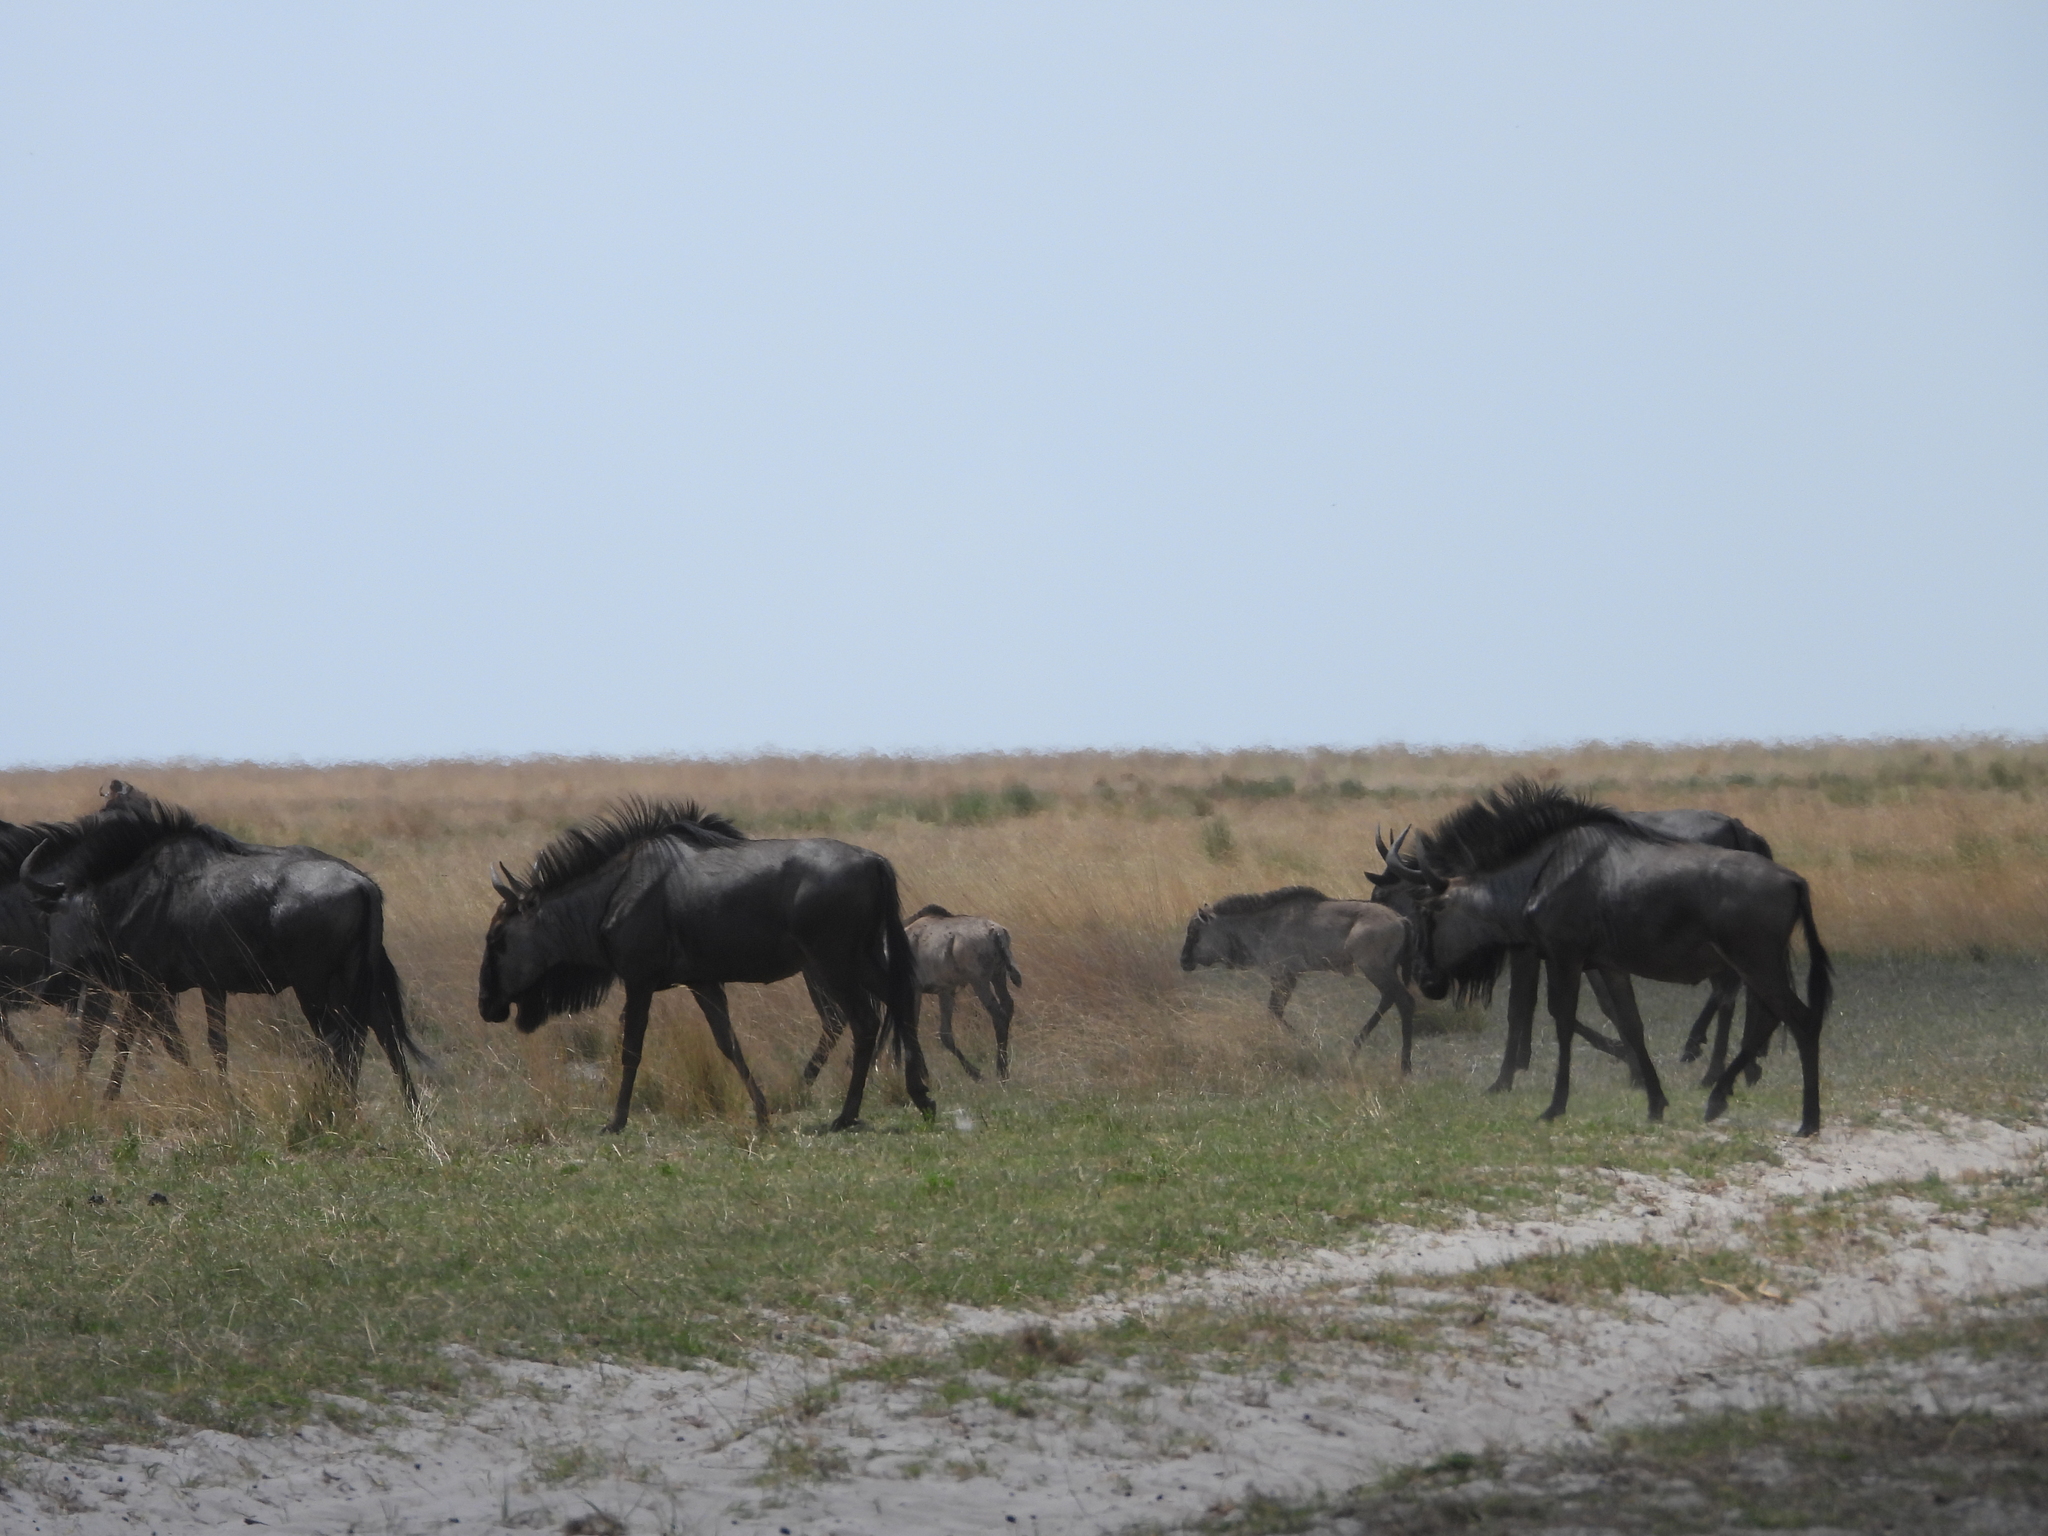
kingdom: Animalia
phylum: Chordata
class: Mammalia
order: Artiodactyla
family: Bovidae
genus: Connochaetes
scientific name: Connochaetes taurinus
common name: Blue wildebeest
